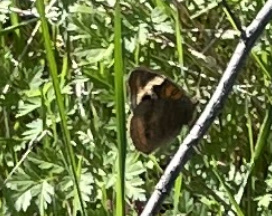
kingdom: Animalia
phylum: Arthropoda
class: Insecta
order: Lepidoptera
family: Nymphalidae
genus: Junonia
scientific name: Junonia coenia
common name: Common buckeye
